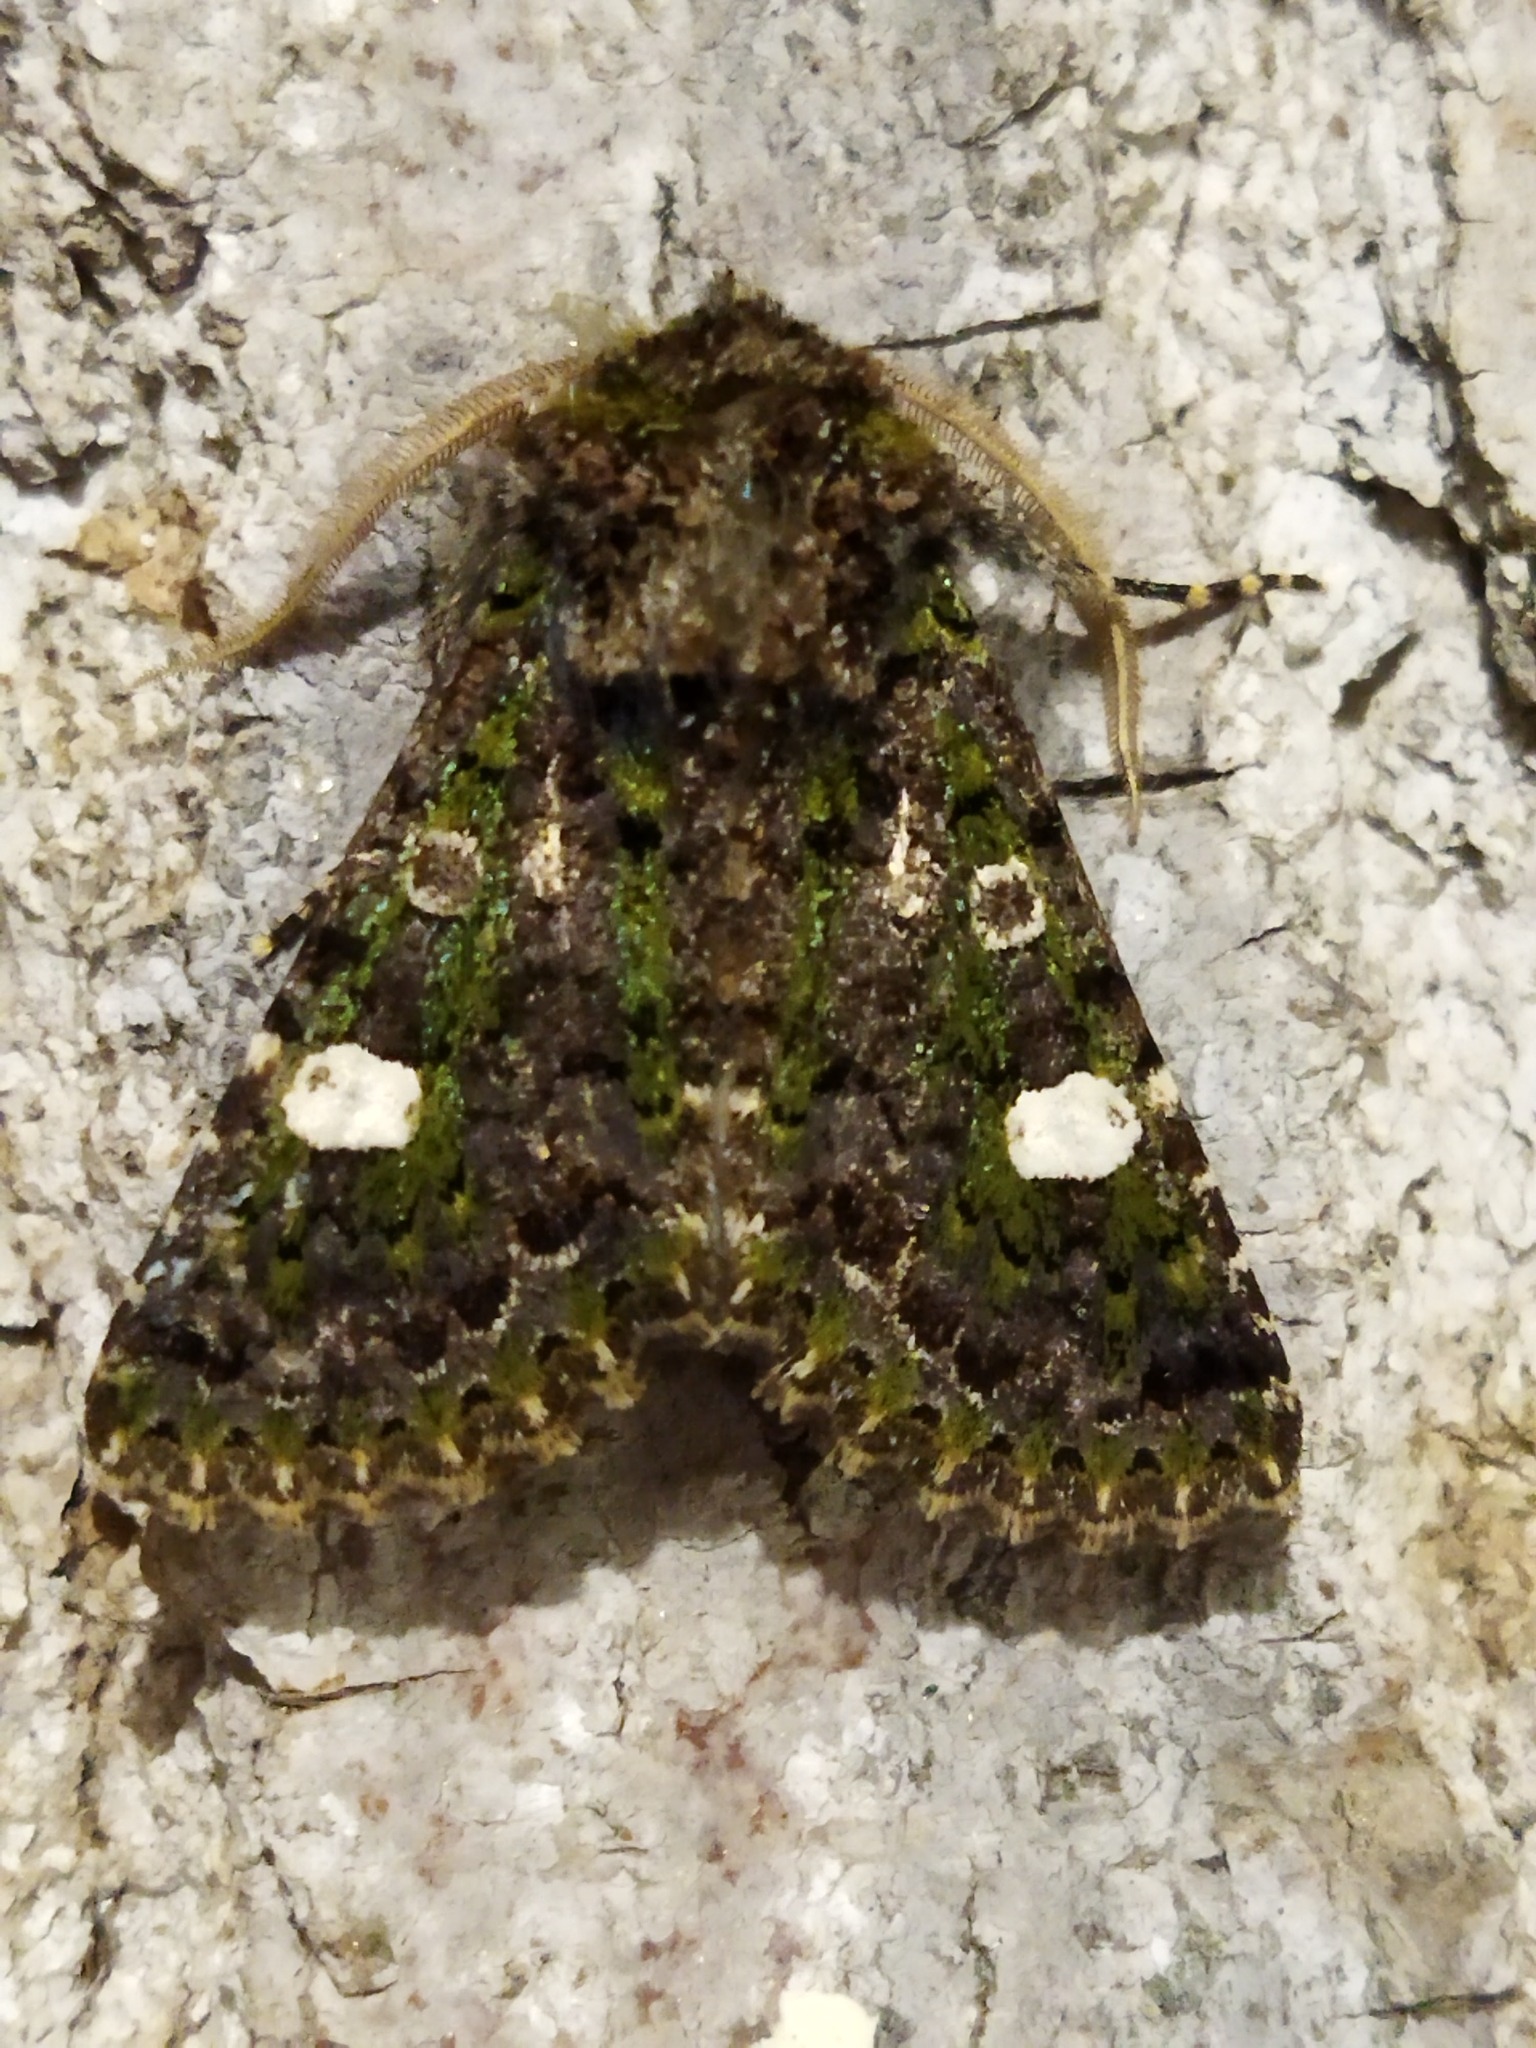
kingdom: Animalia
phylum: Arthropoda
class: Insecta
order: Lepidoptera
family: Noctuidae
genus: Valeria
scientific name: Valeria oleagina
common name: Green-brindled dot
